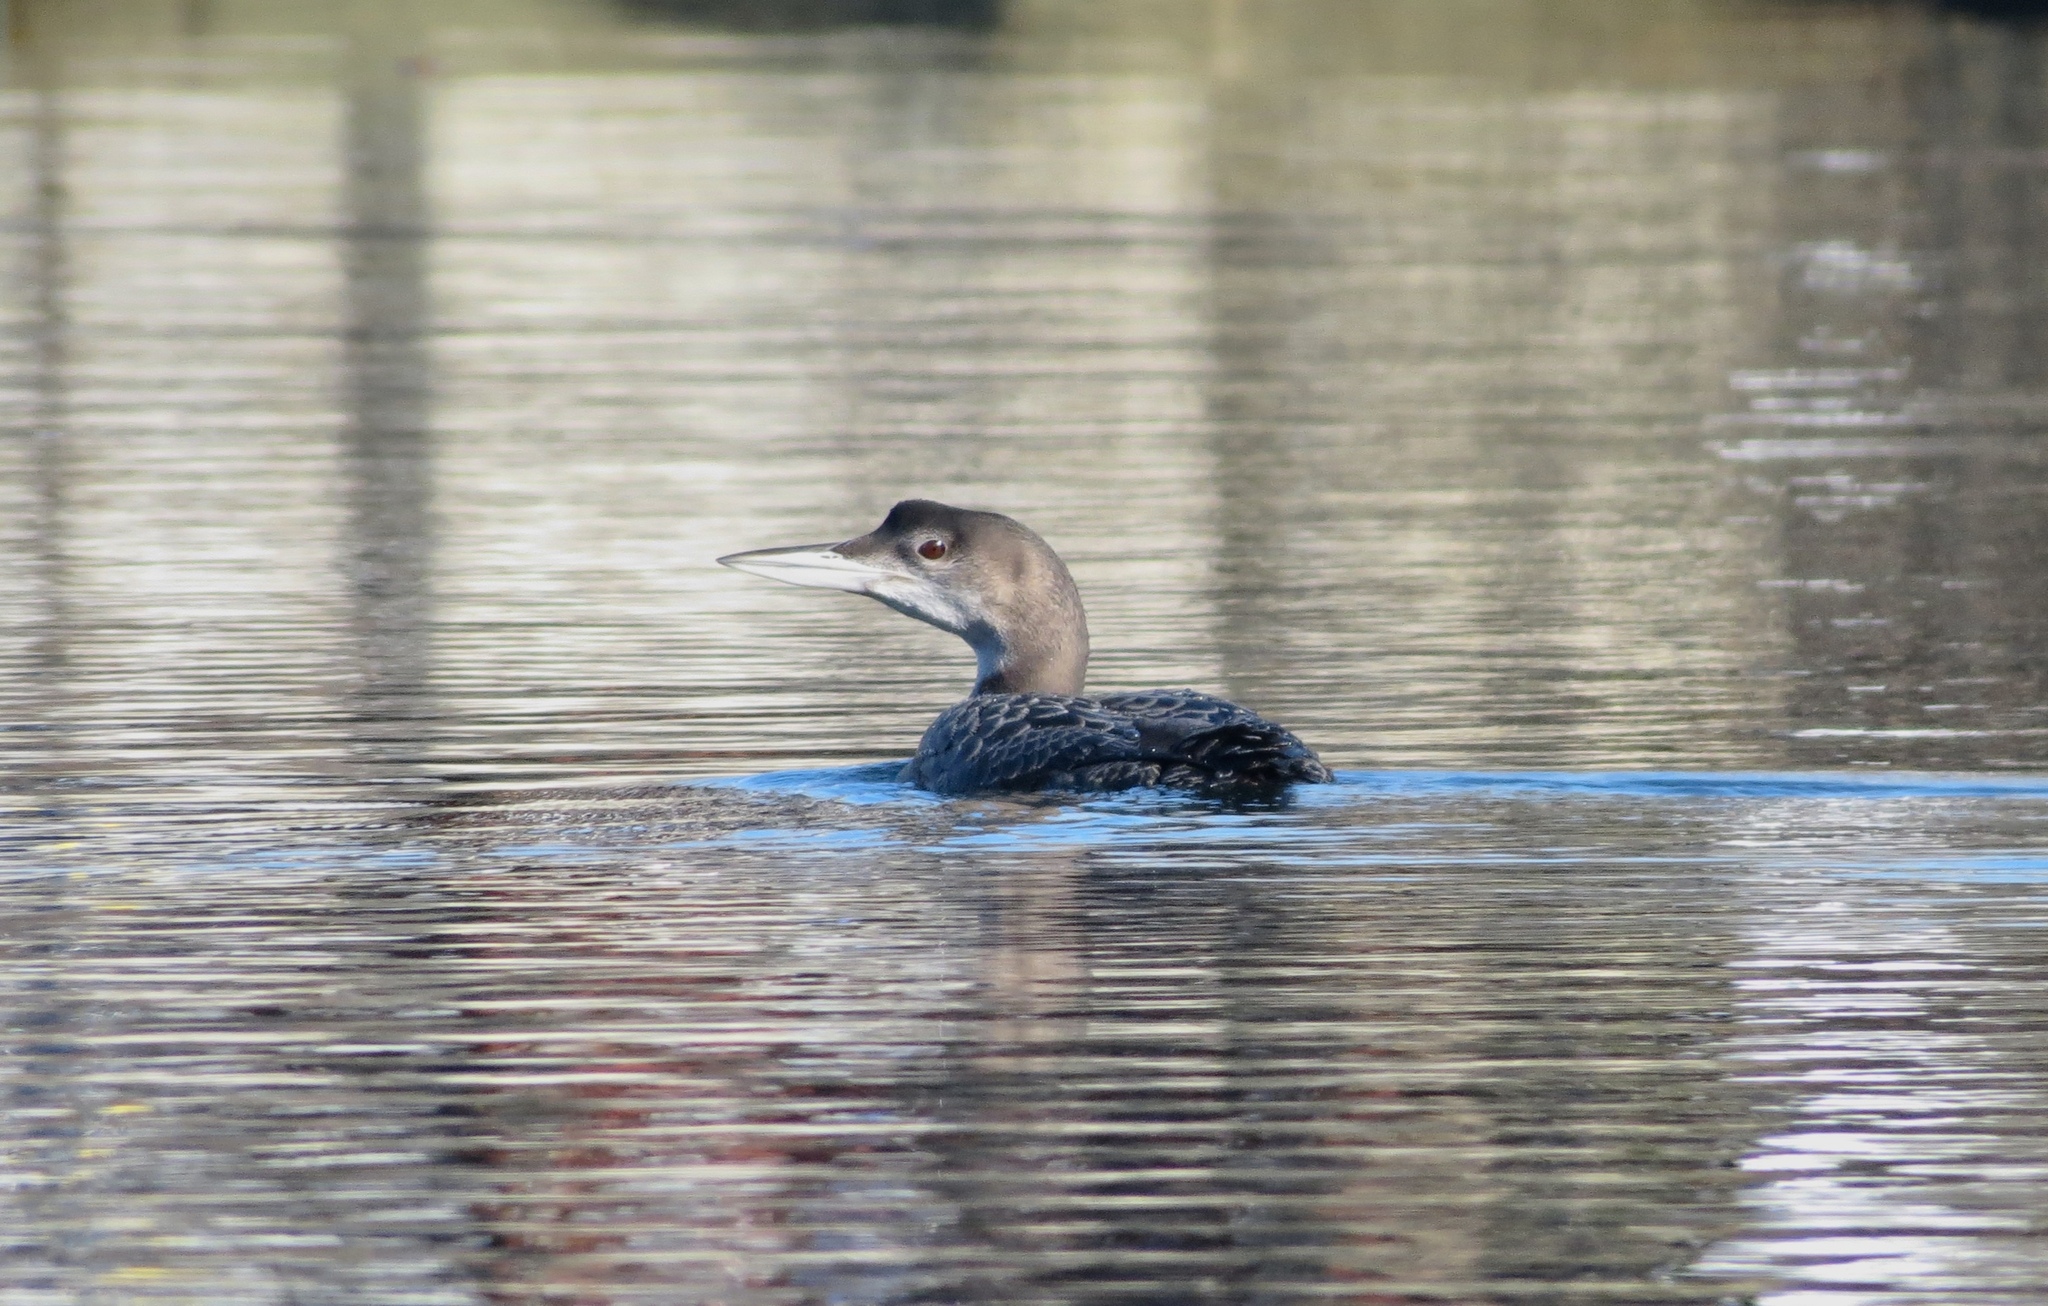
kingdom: Animalia
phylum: Chordata
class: Aves
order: Gaviiformes
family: Gaviidae
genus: Gavia
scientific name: Gavia immer
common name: Common loon
